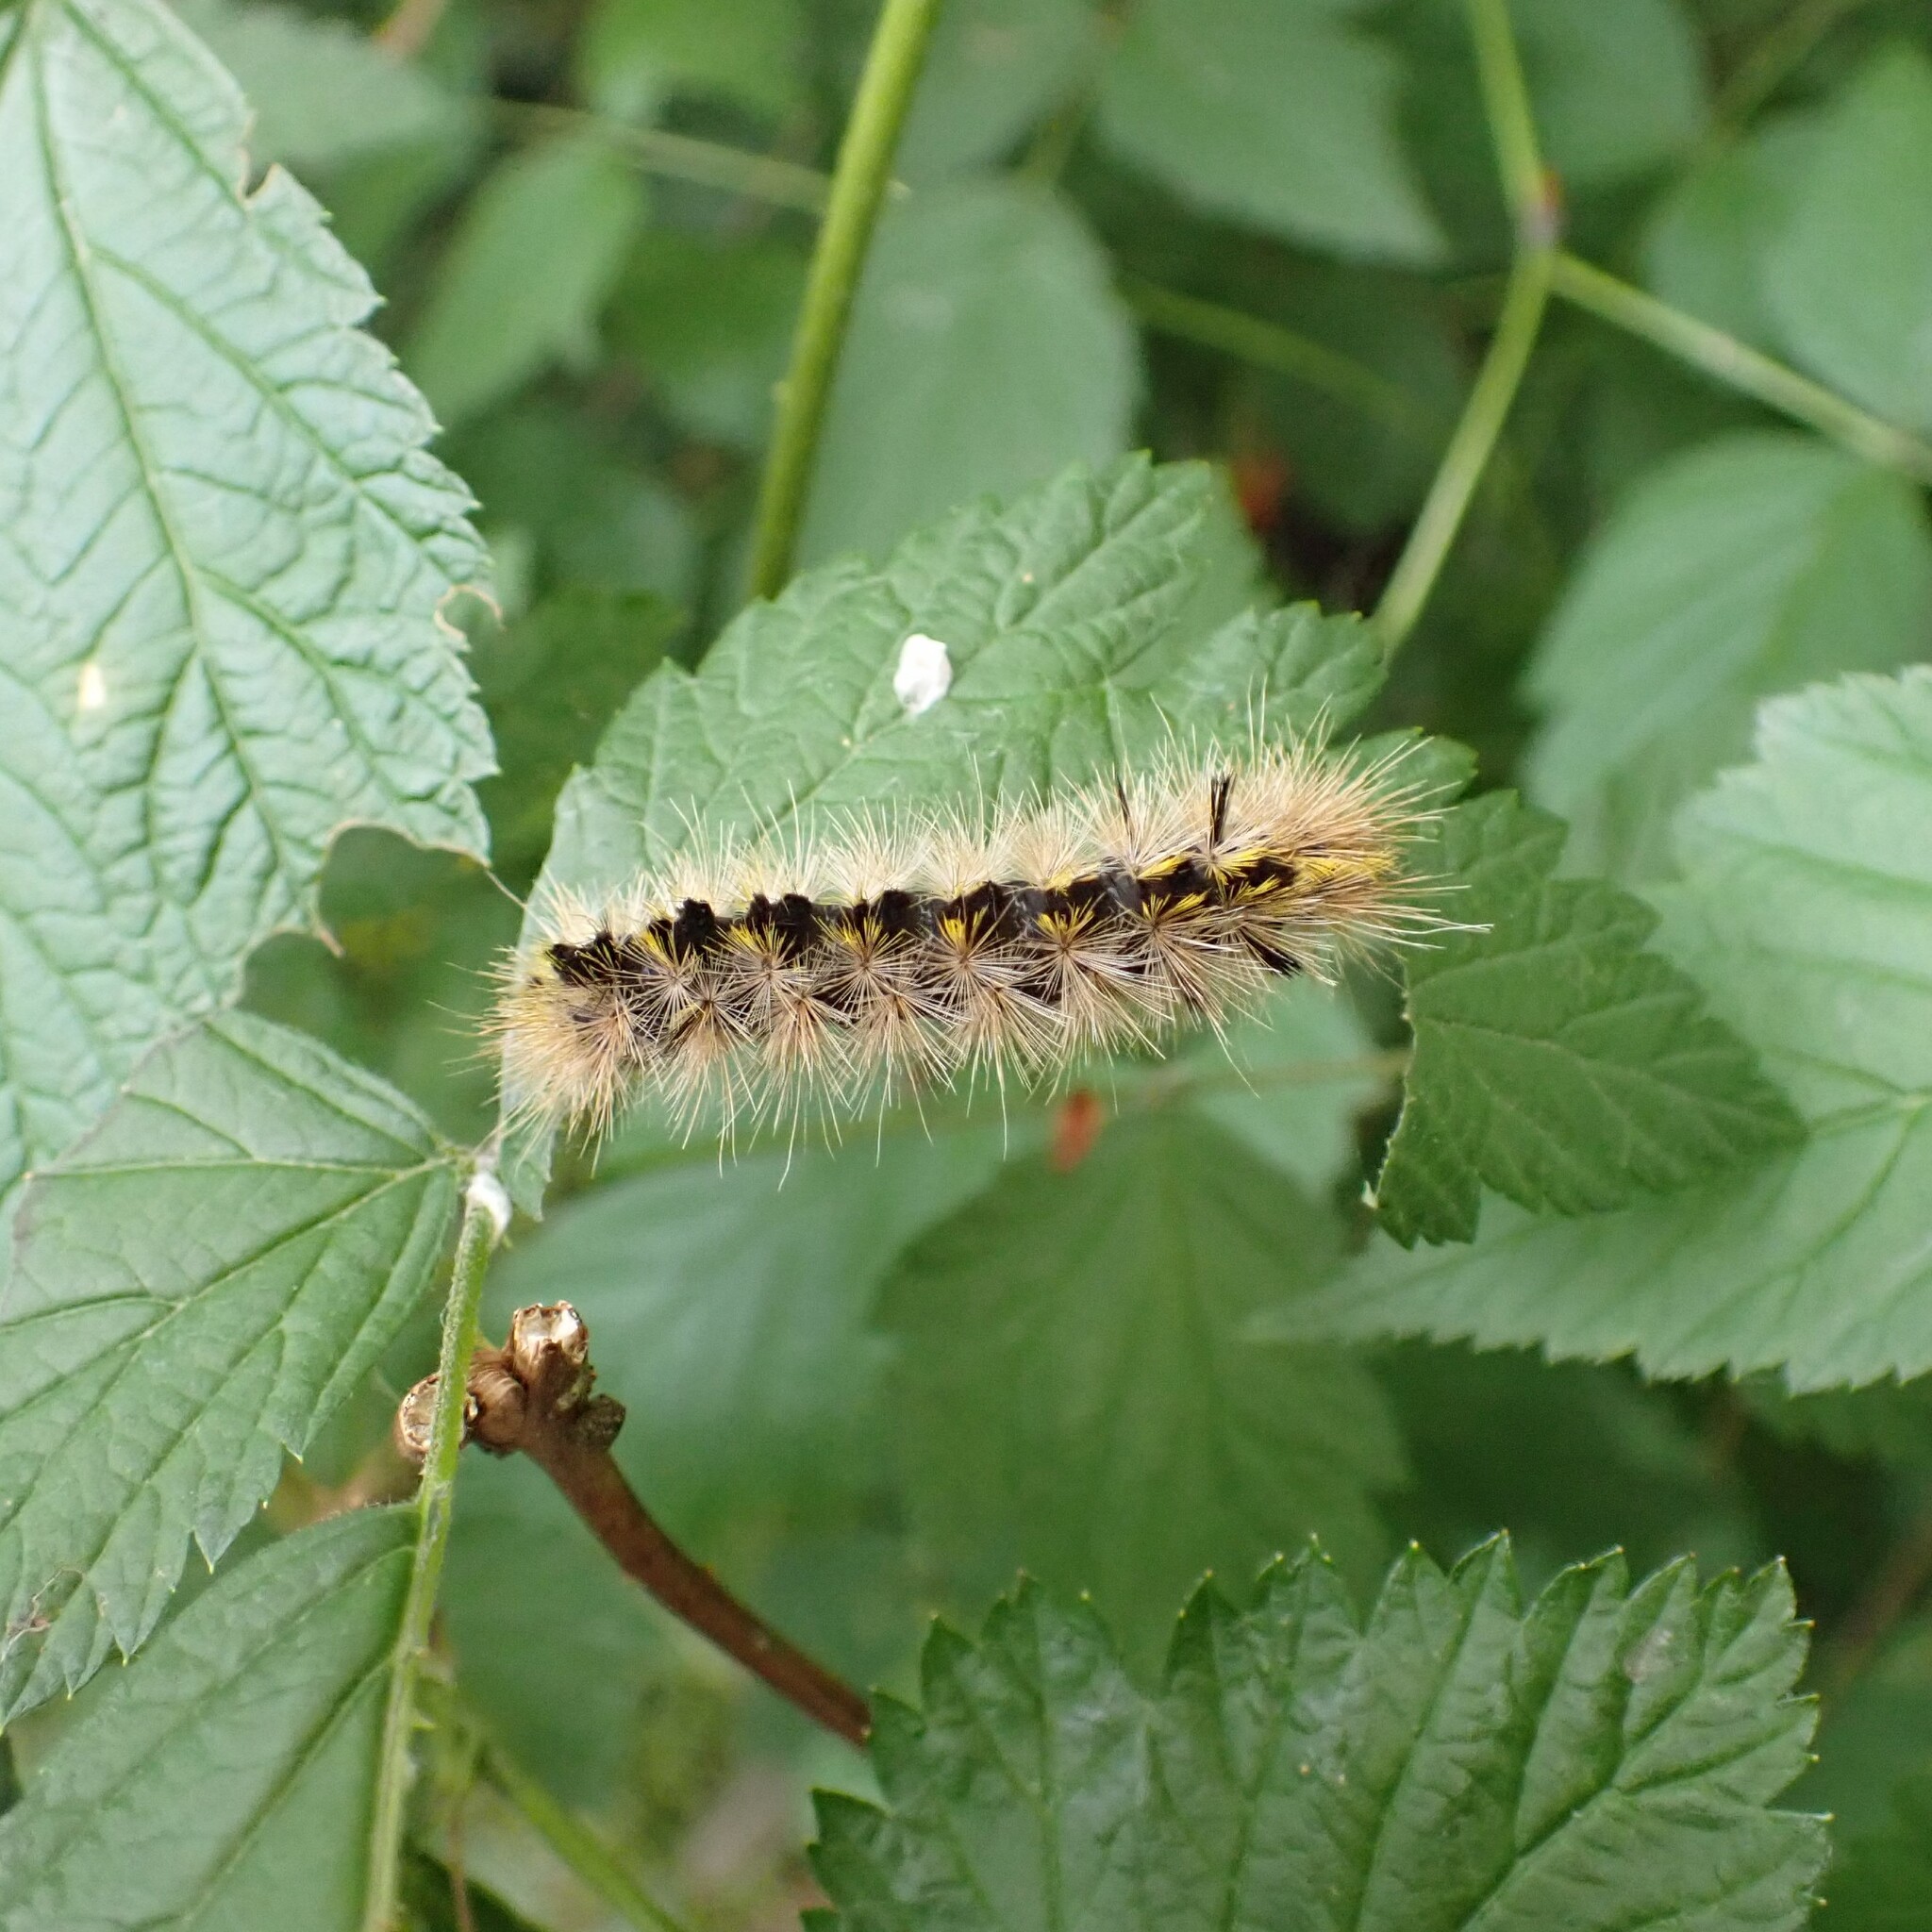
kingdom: Animalia
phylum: Arthropoda
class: Insecta
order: Lepidoptera
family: Erebidae
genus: Lophocampa
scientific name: Lophocampa argentata
